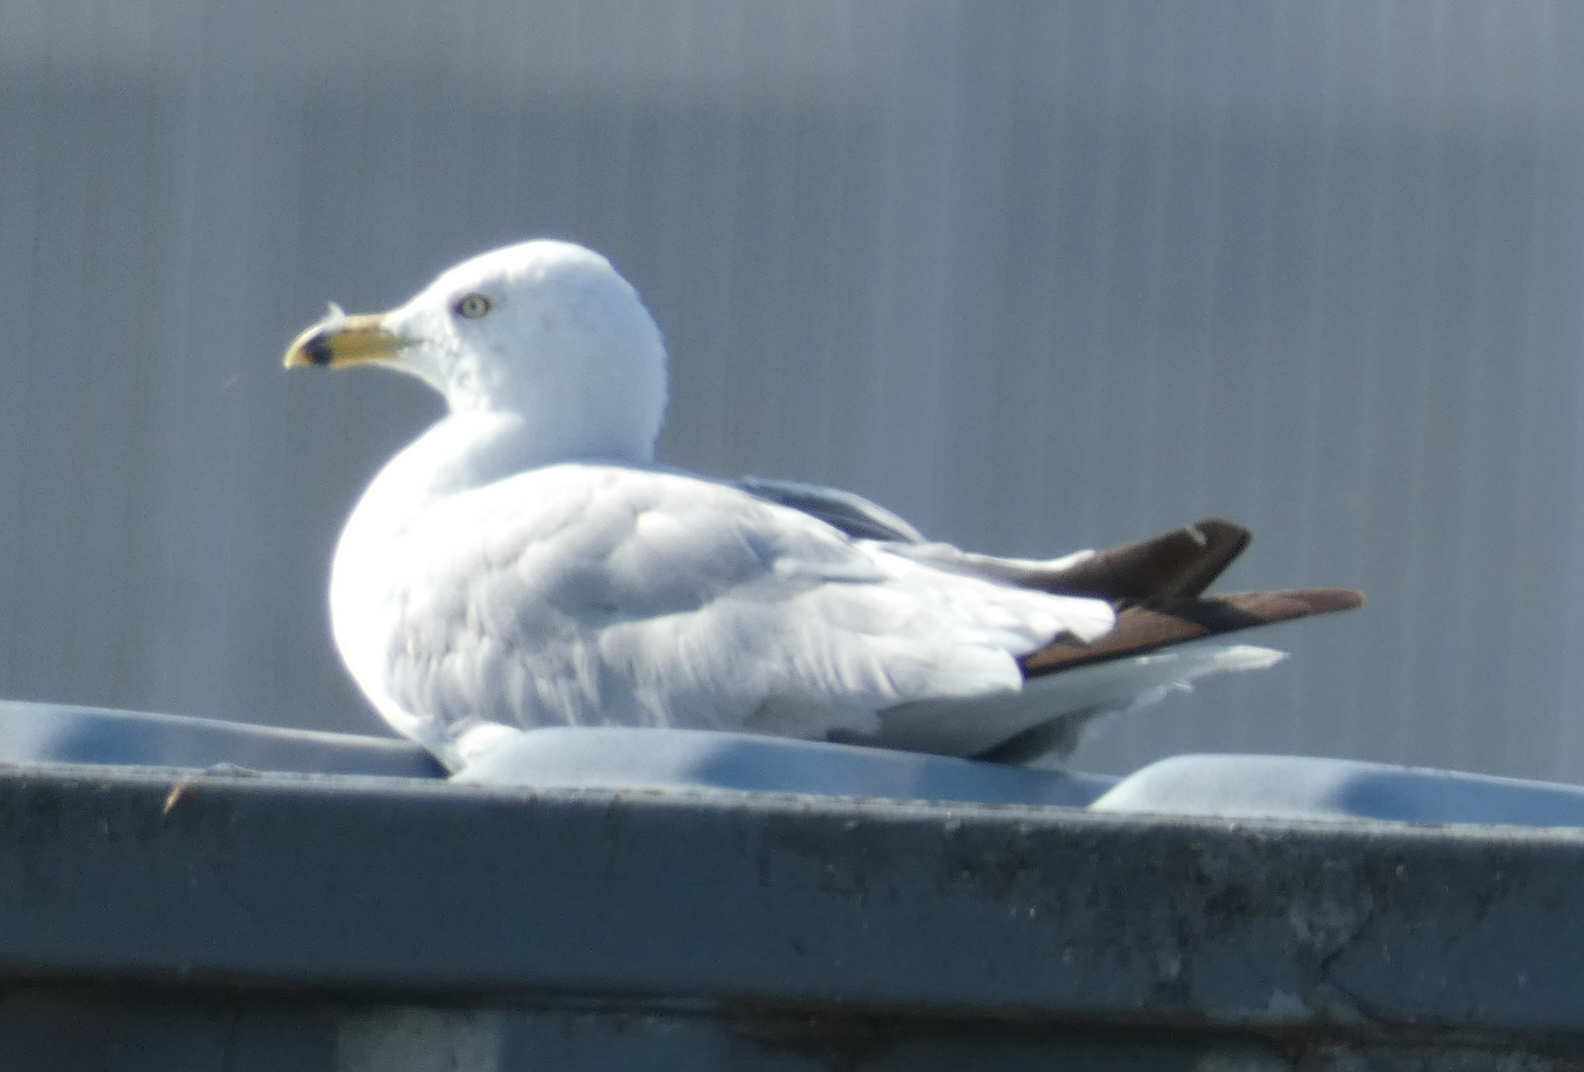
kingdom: Animalia
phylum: Chordata
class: Aves
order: Charadriiformes
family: Laridae
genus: Larus
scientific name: Larus delawarensis
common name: Ring-billed gull
